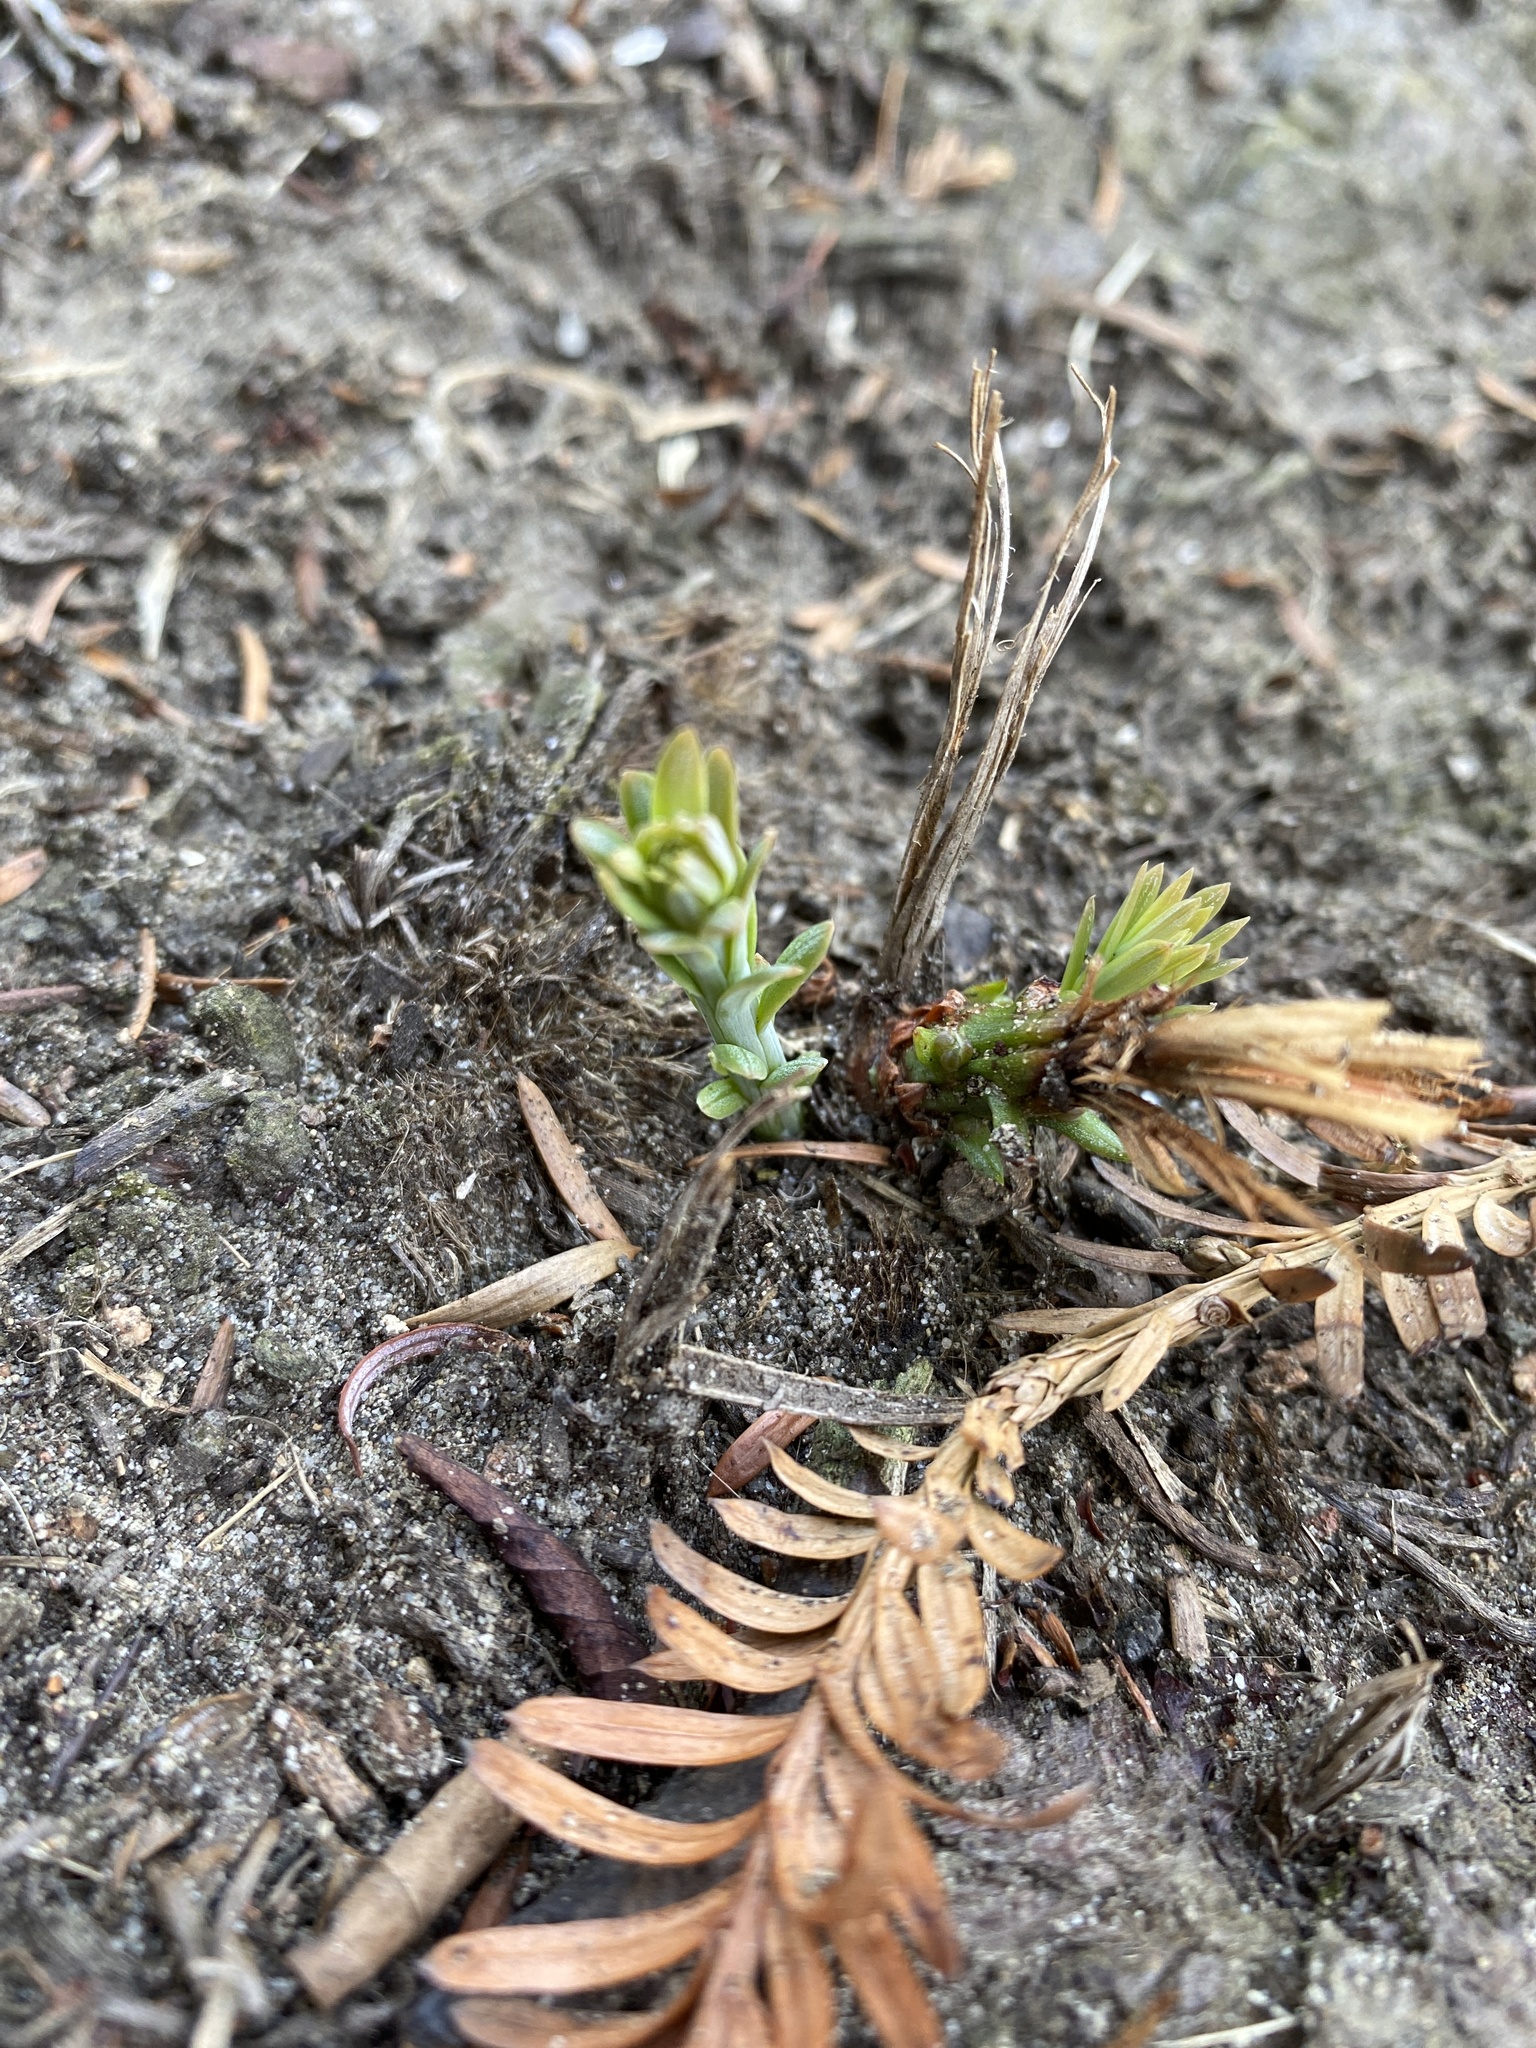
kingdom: Plantae
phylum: Tracheophyta
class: Pinopsida
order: Pinales
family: Cupressaceae
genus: Sequoia
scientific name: Sequoia sempervirens
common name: Coast redwood
